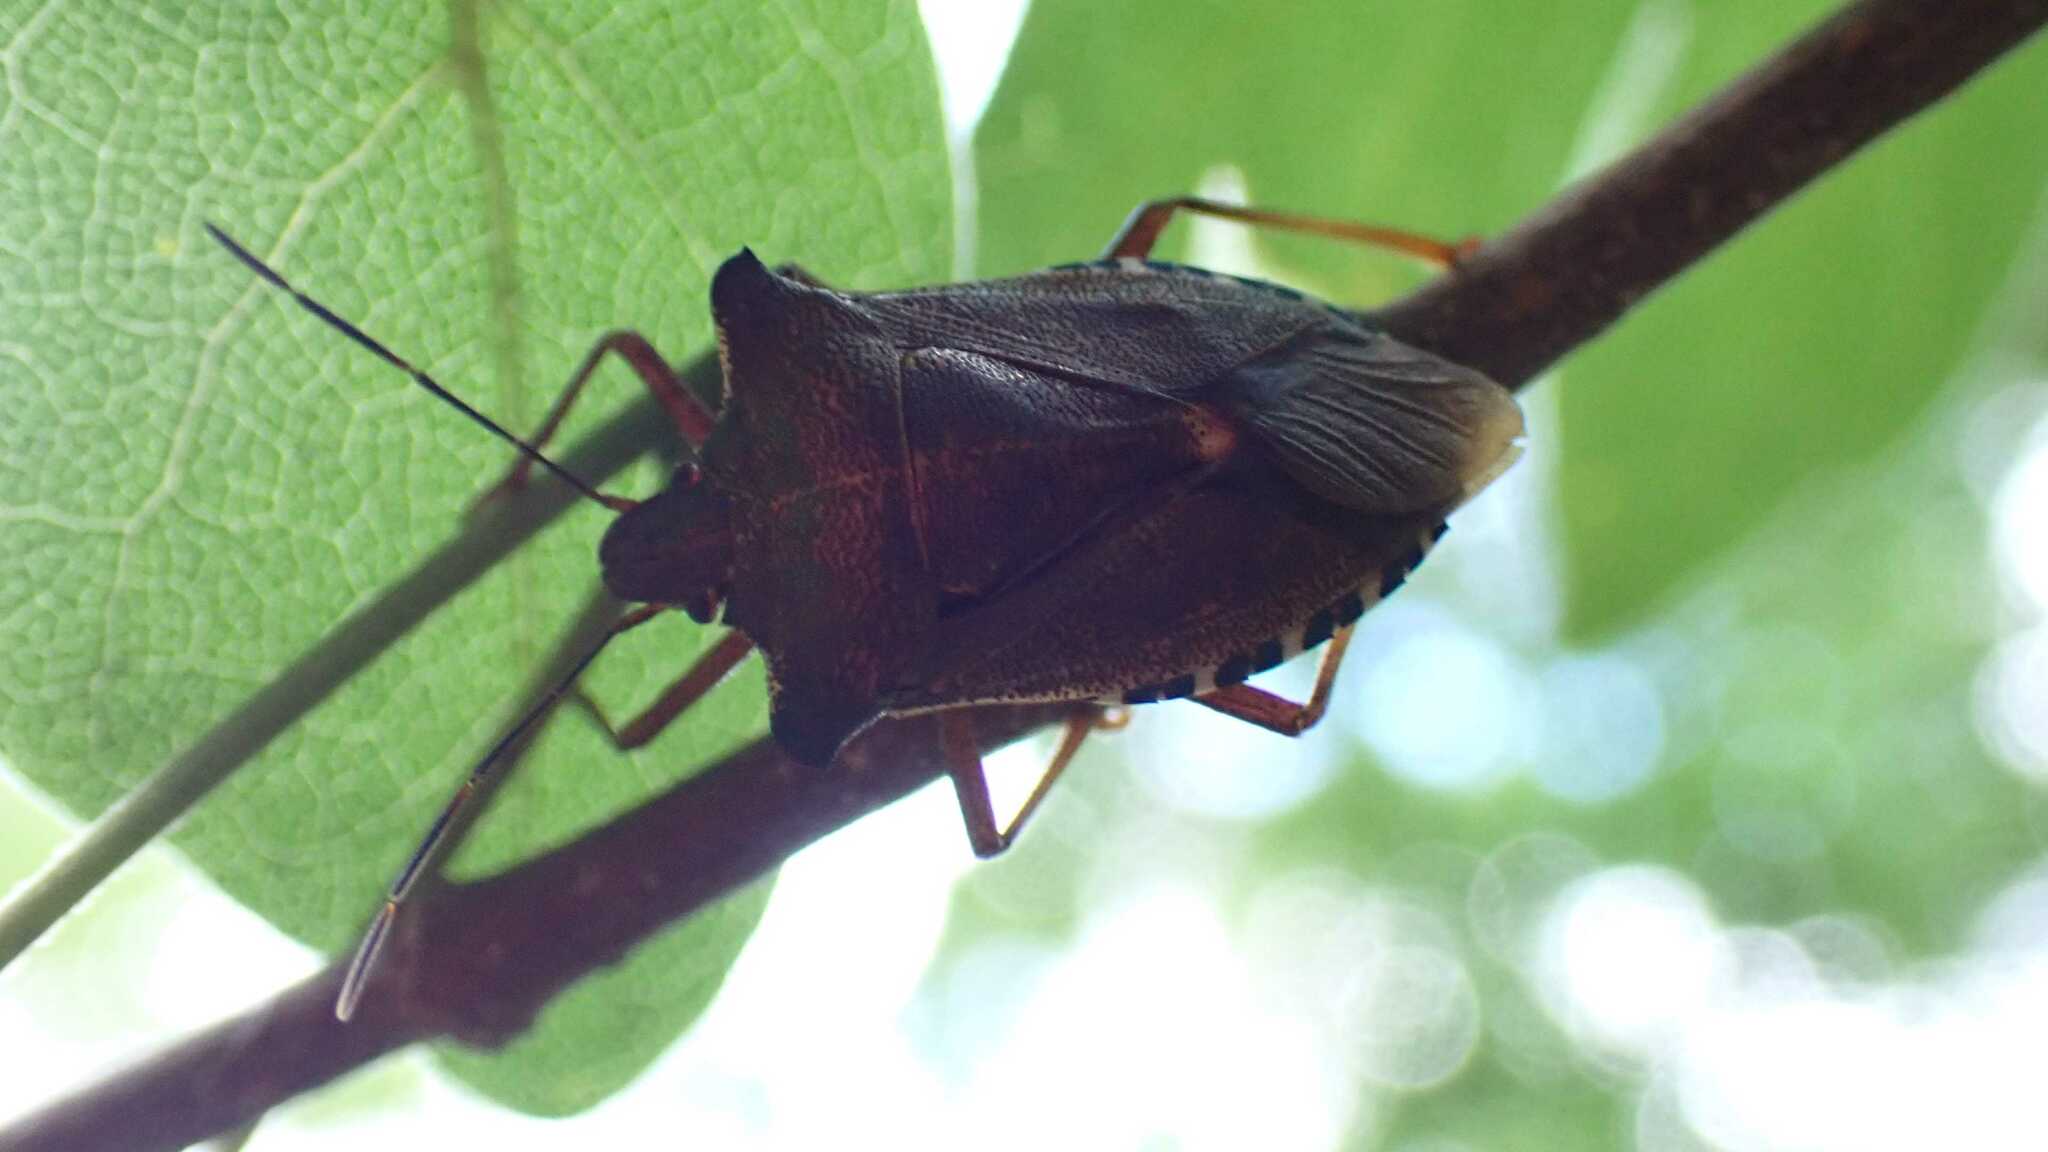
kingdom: Animalia
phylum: Arthropoda
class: Insecta
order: Hemiptera
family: Pentatomidae
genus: Pentatoma
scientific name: Pentatoma rufipes
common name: Forest bug
